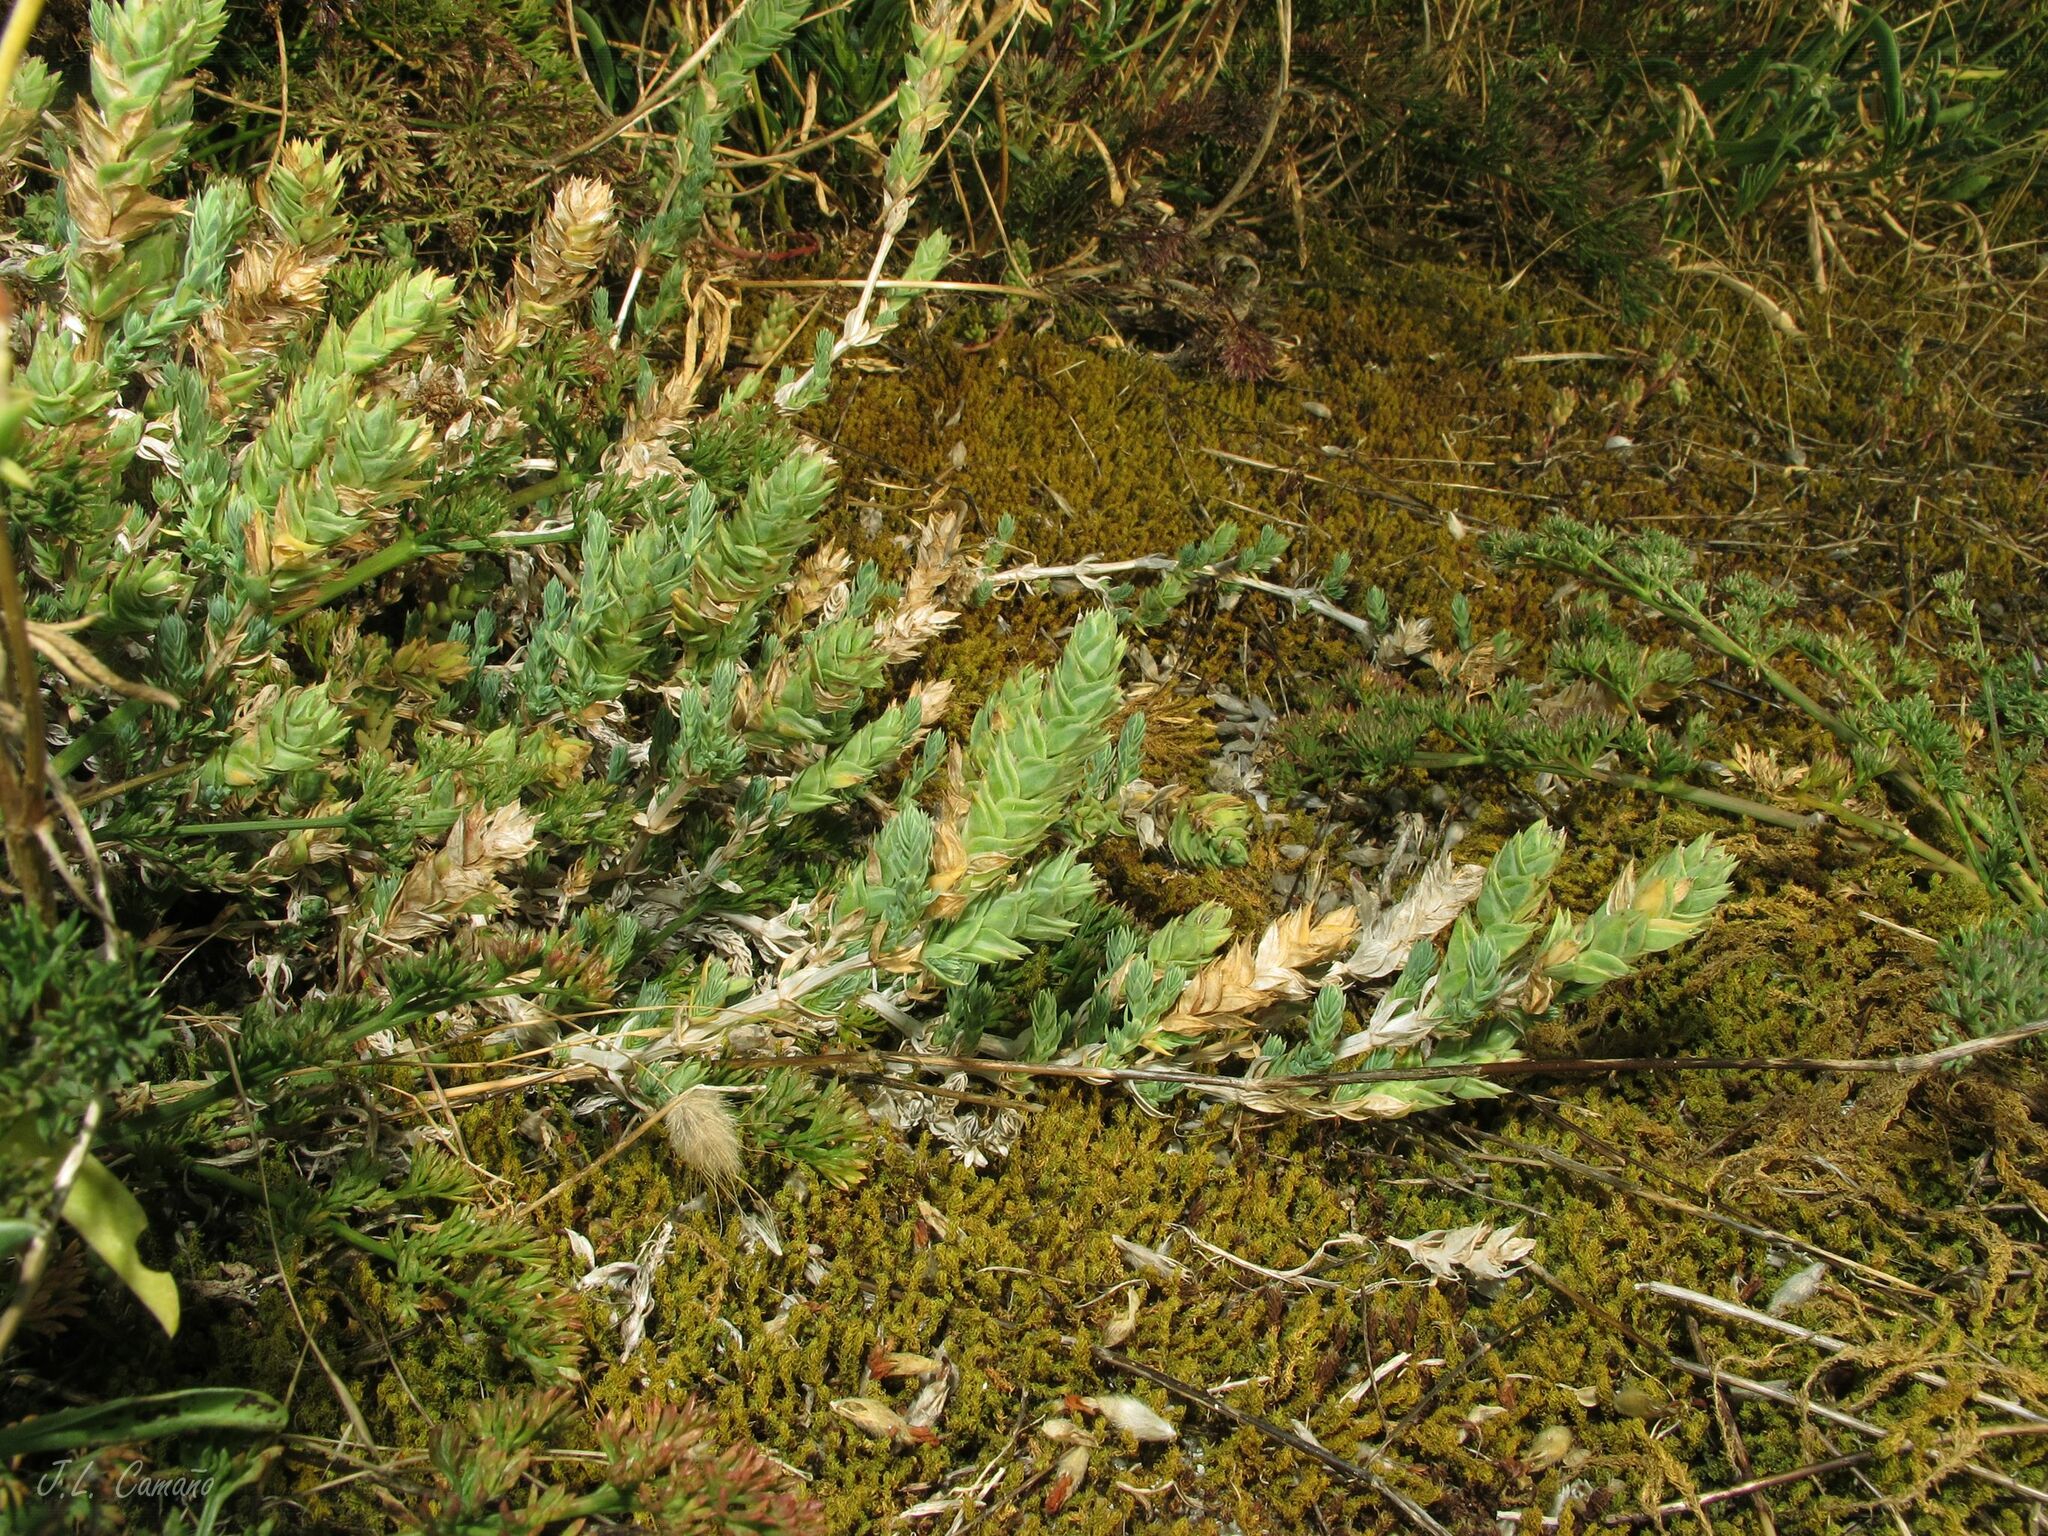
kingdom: Plantae
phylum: Tracheophyta
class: Magnoliopsida
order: Gentianales
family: Rubiaceae
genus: Crucianella
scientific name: Crucianella maritima
